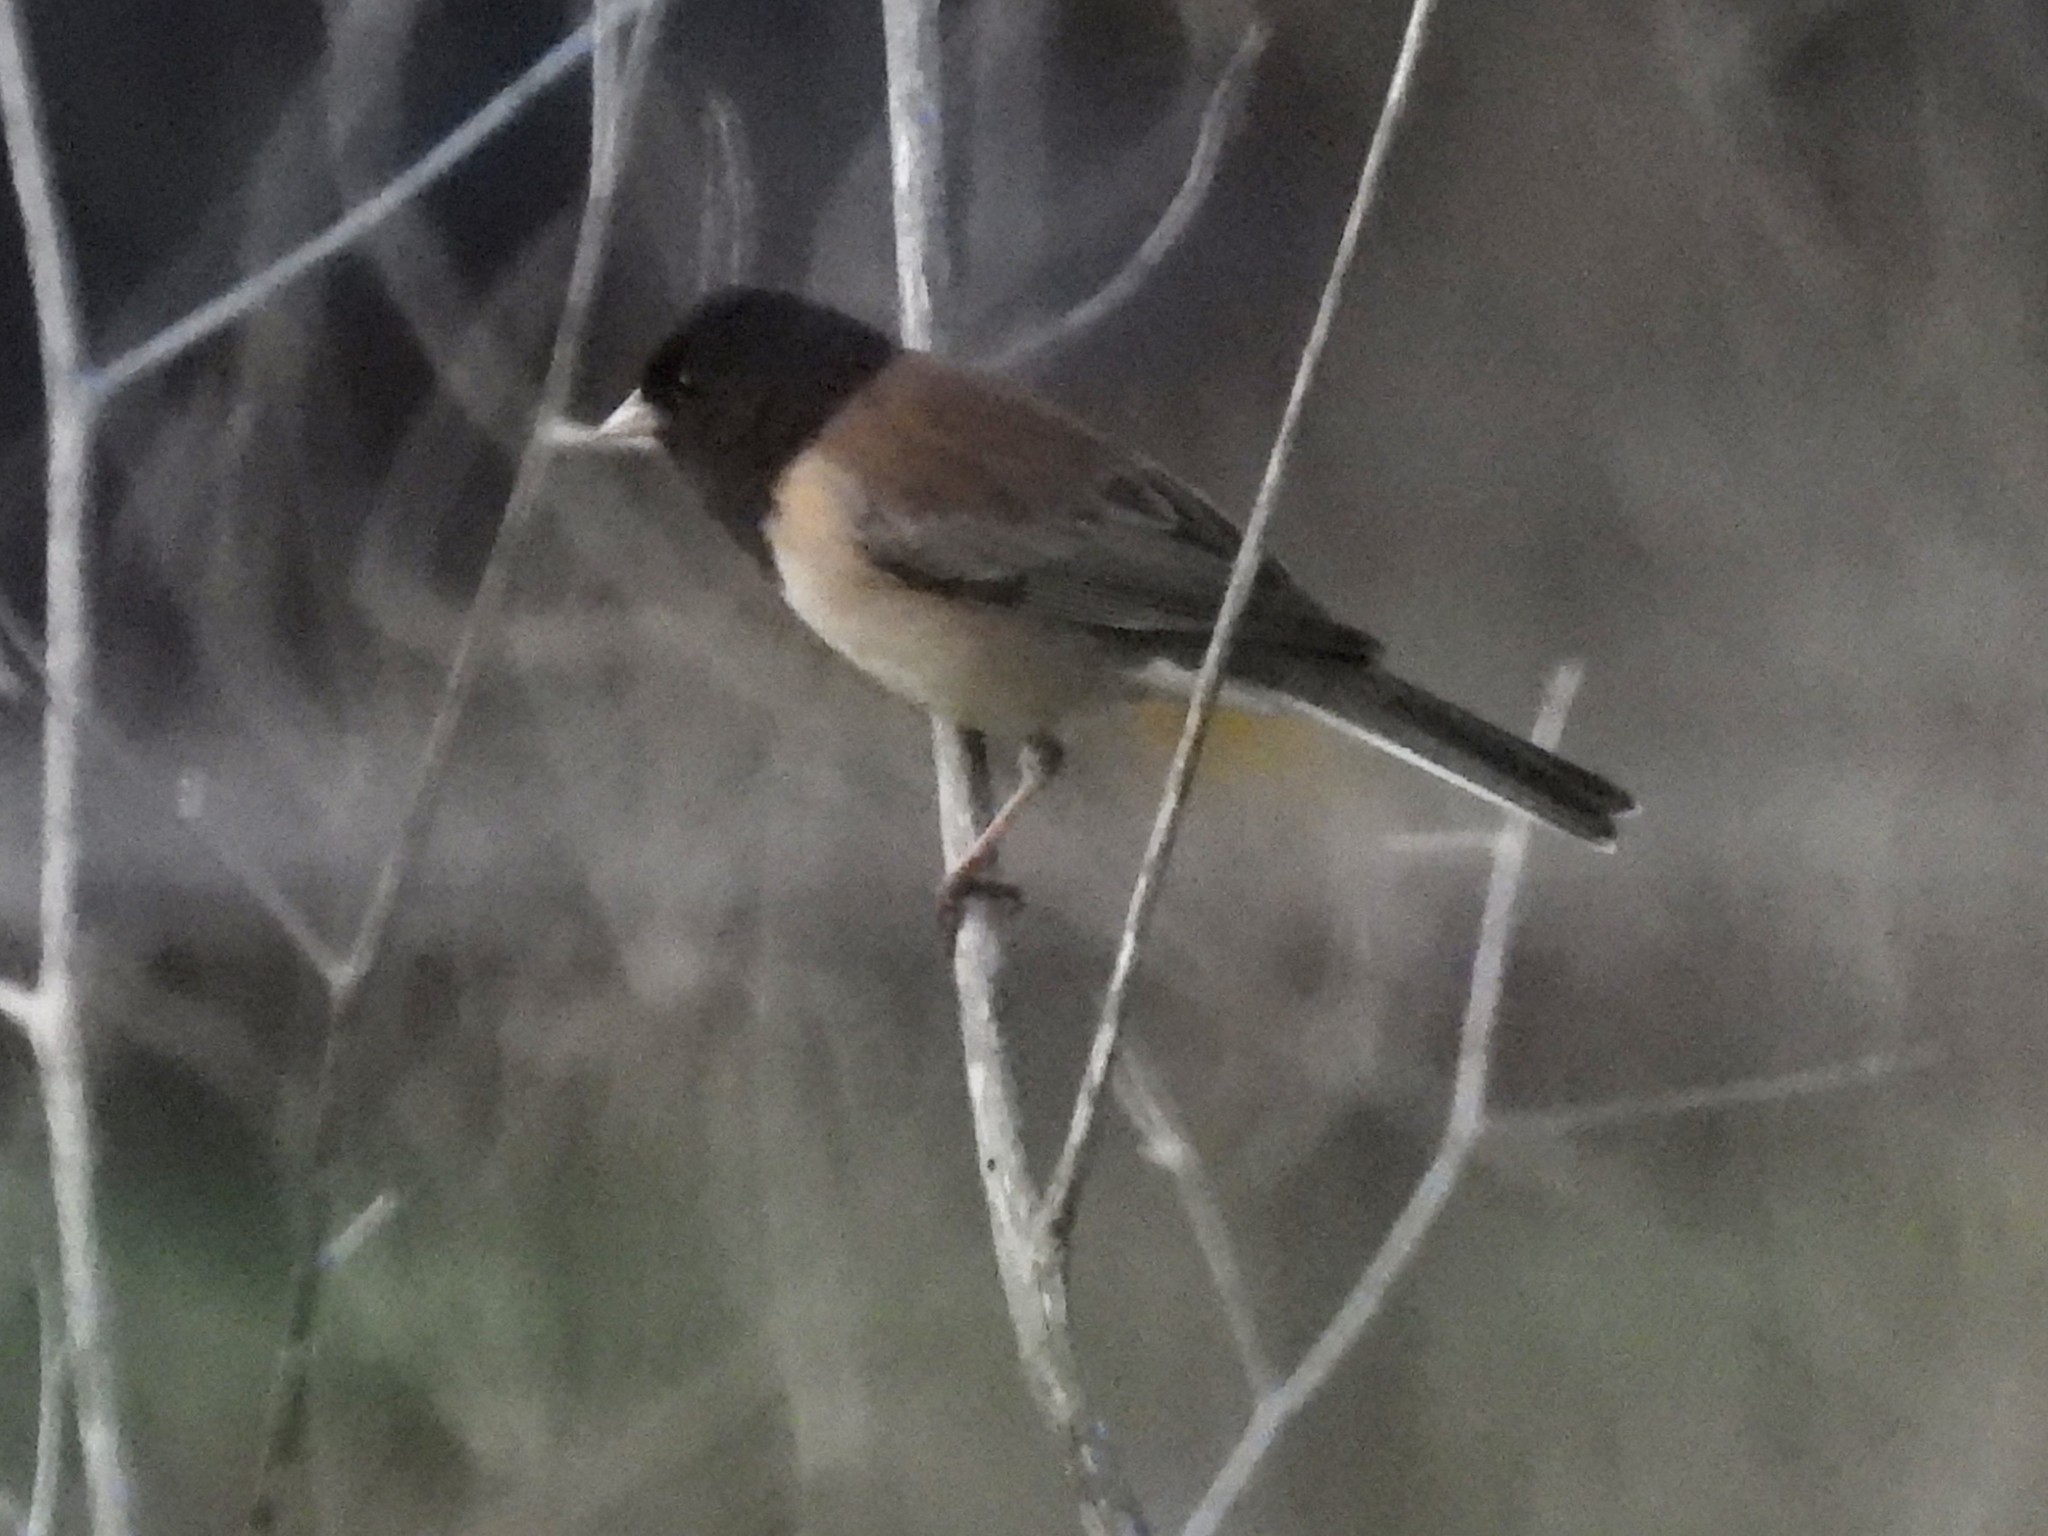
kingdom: Animalia
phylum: Chordata
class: Aves
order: Passeriformes
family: Passerellidae
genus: Junco
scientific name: Junco hyemalis
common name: Dark-eyed junco
